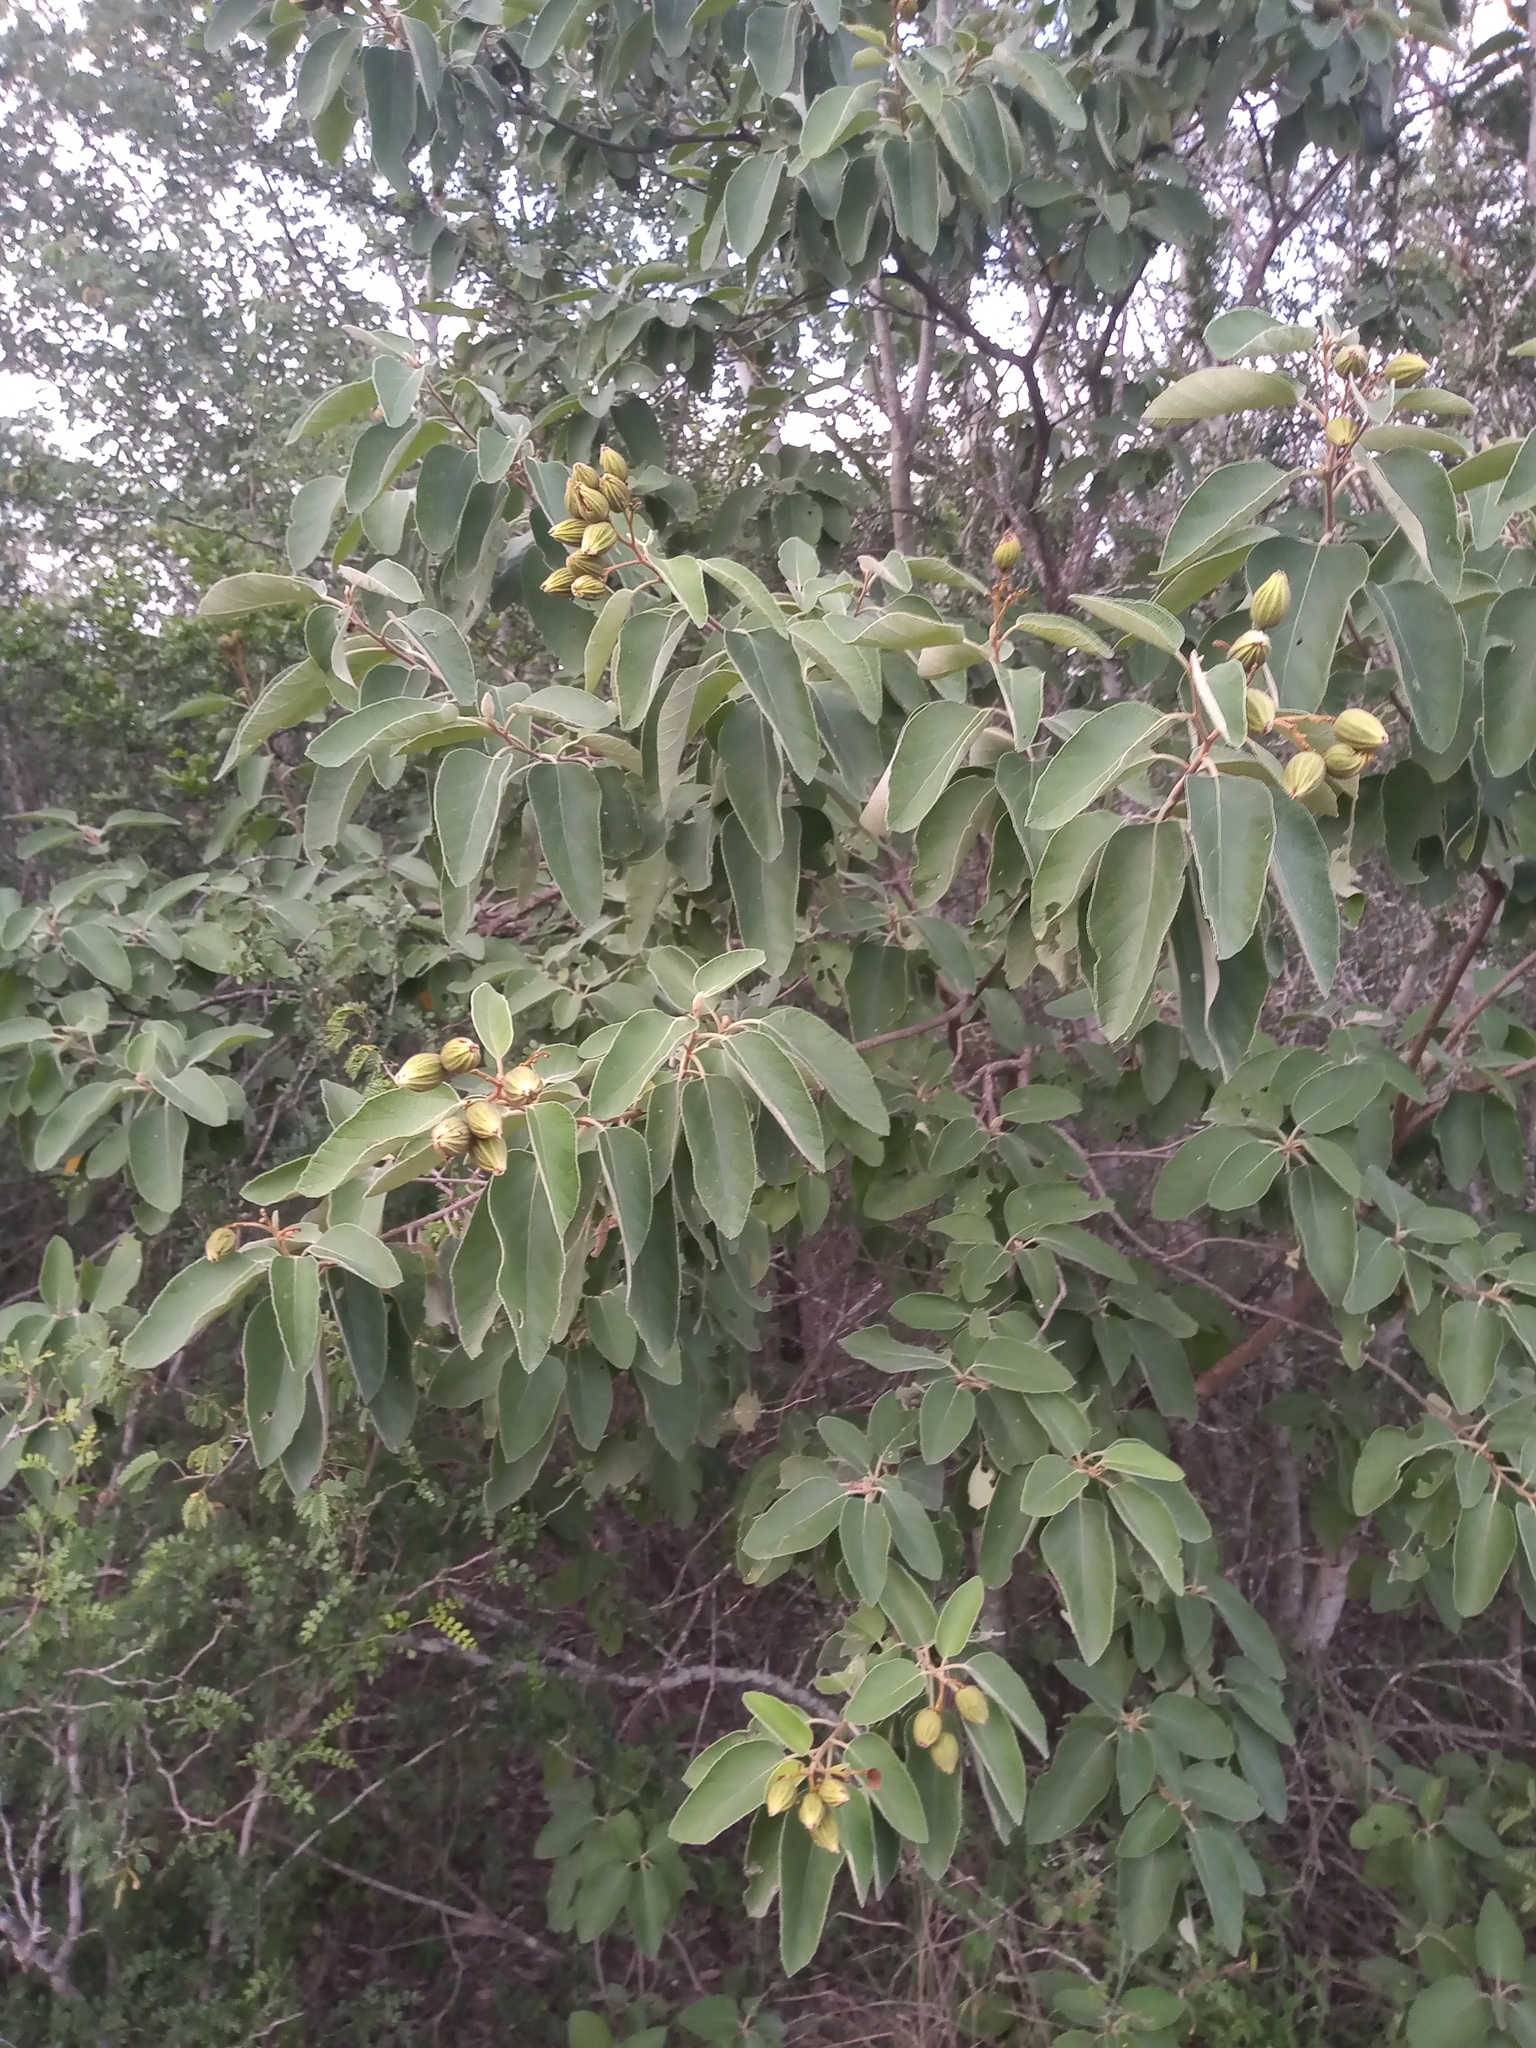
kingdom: Plantae
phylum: Tracheophyta
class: Magnoliopsida
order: Boraginales
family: Cordiaceae
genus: Cordia
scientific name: Cordia boissieri
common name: Mexican-olive
